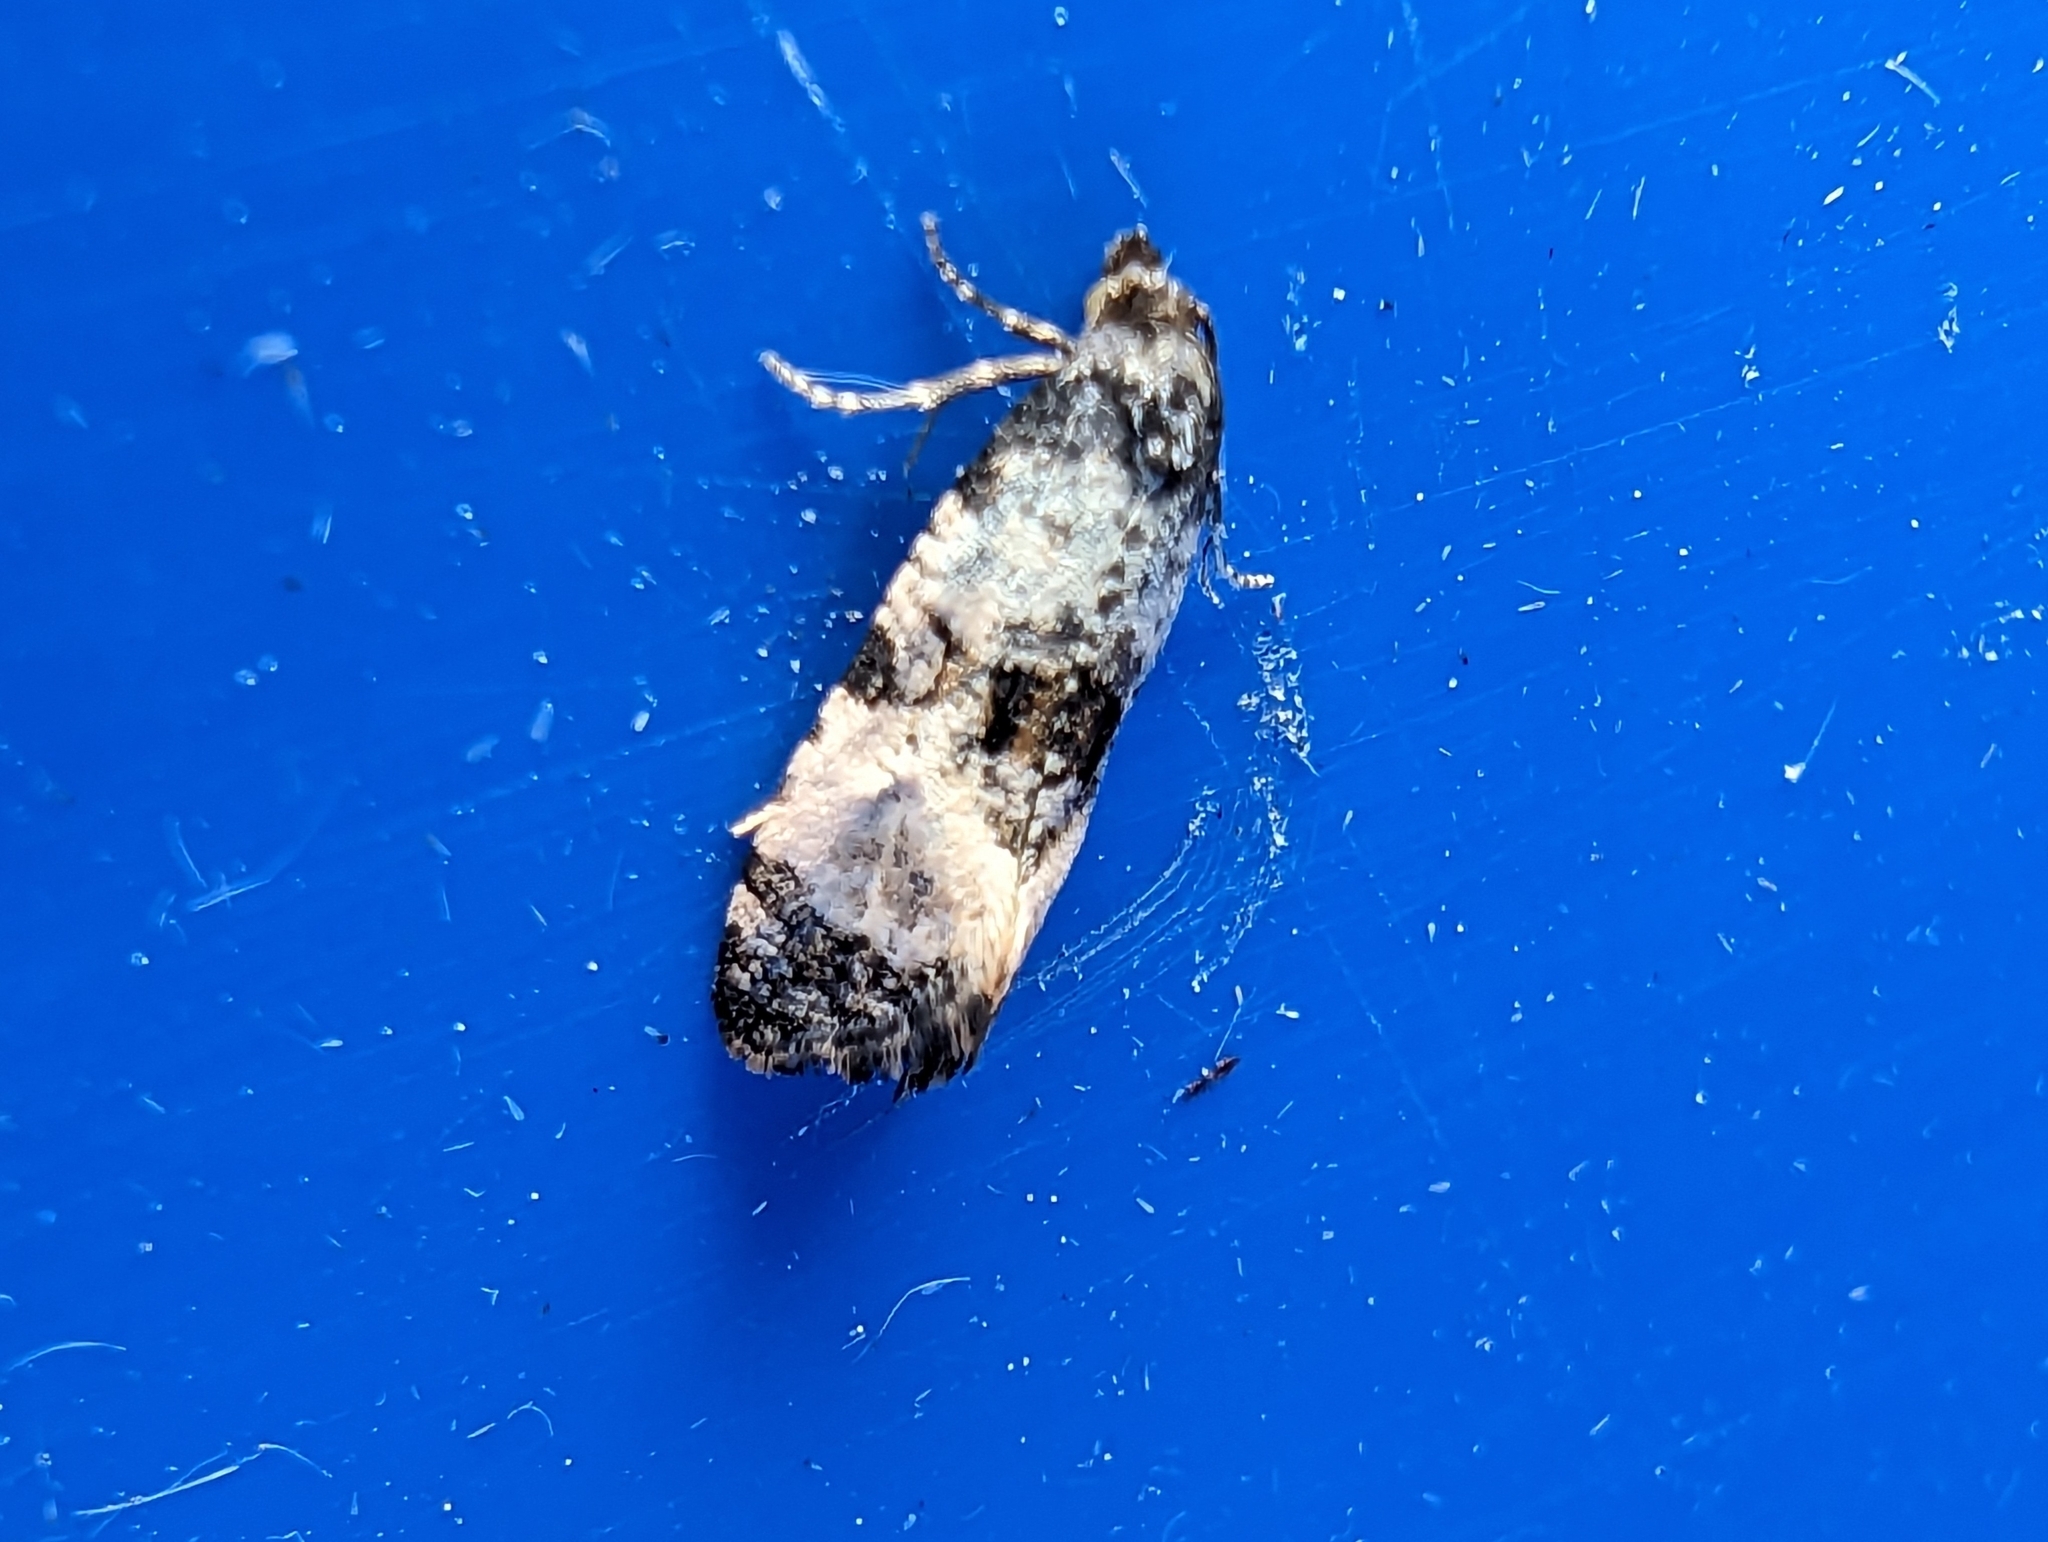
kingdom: Animalia
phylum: Arthropoda
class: Insecta
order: Lepidoptera
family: Tortricidae
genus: Cochylis
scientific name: Cochylis atricapitana
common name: Tortricid moth
